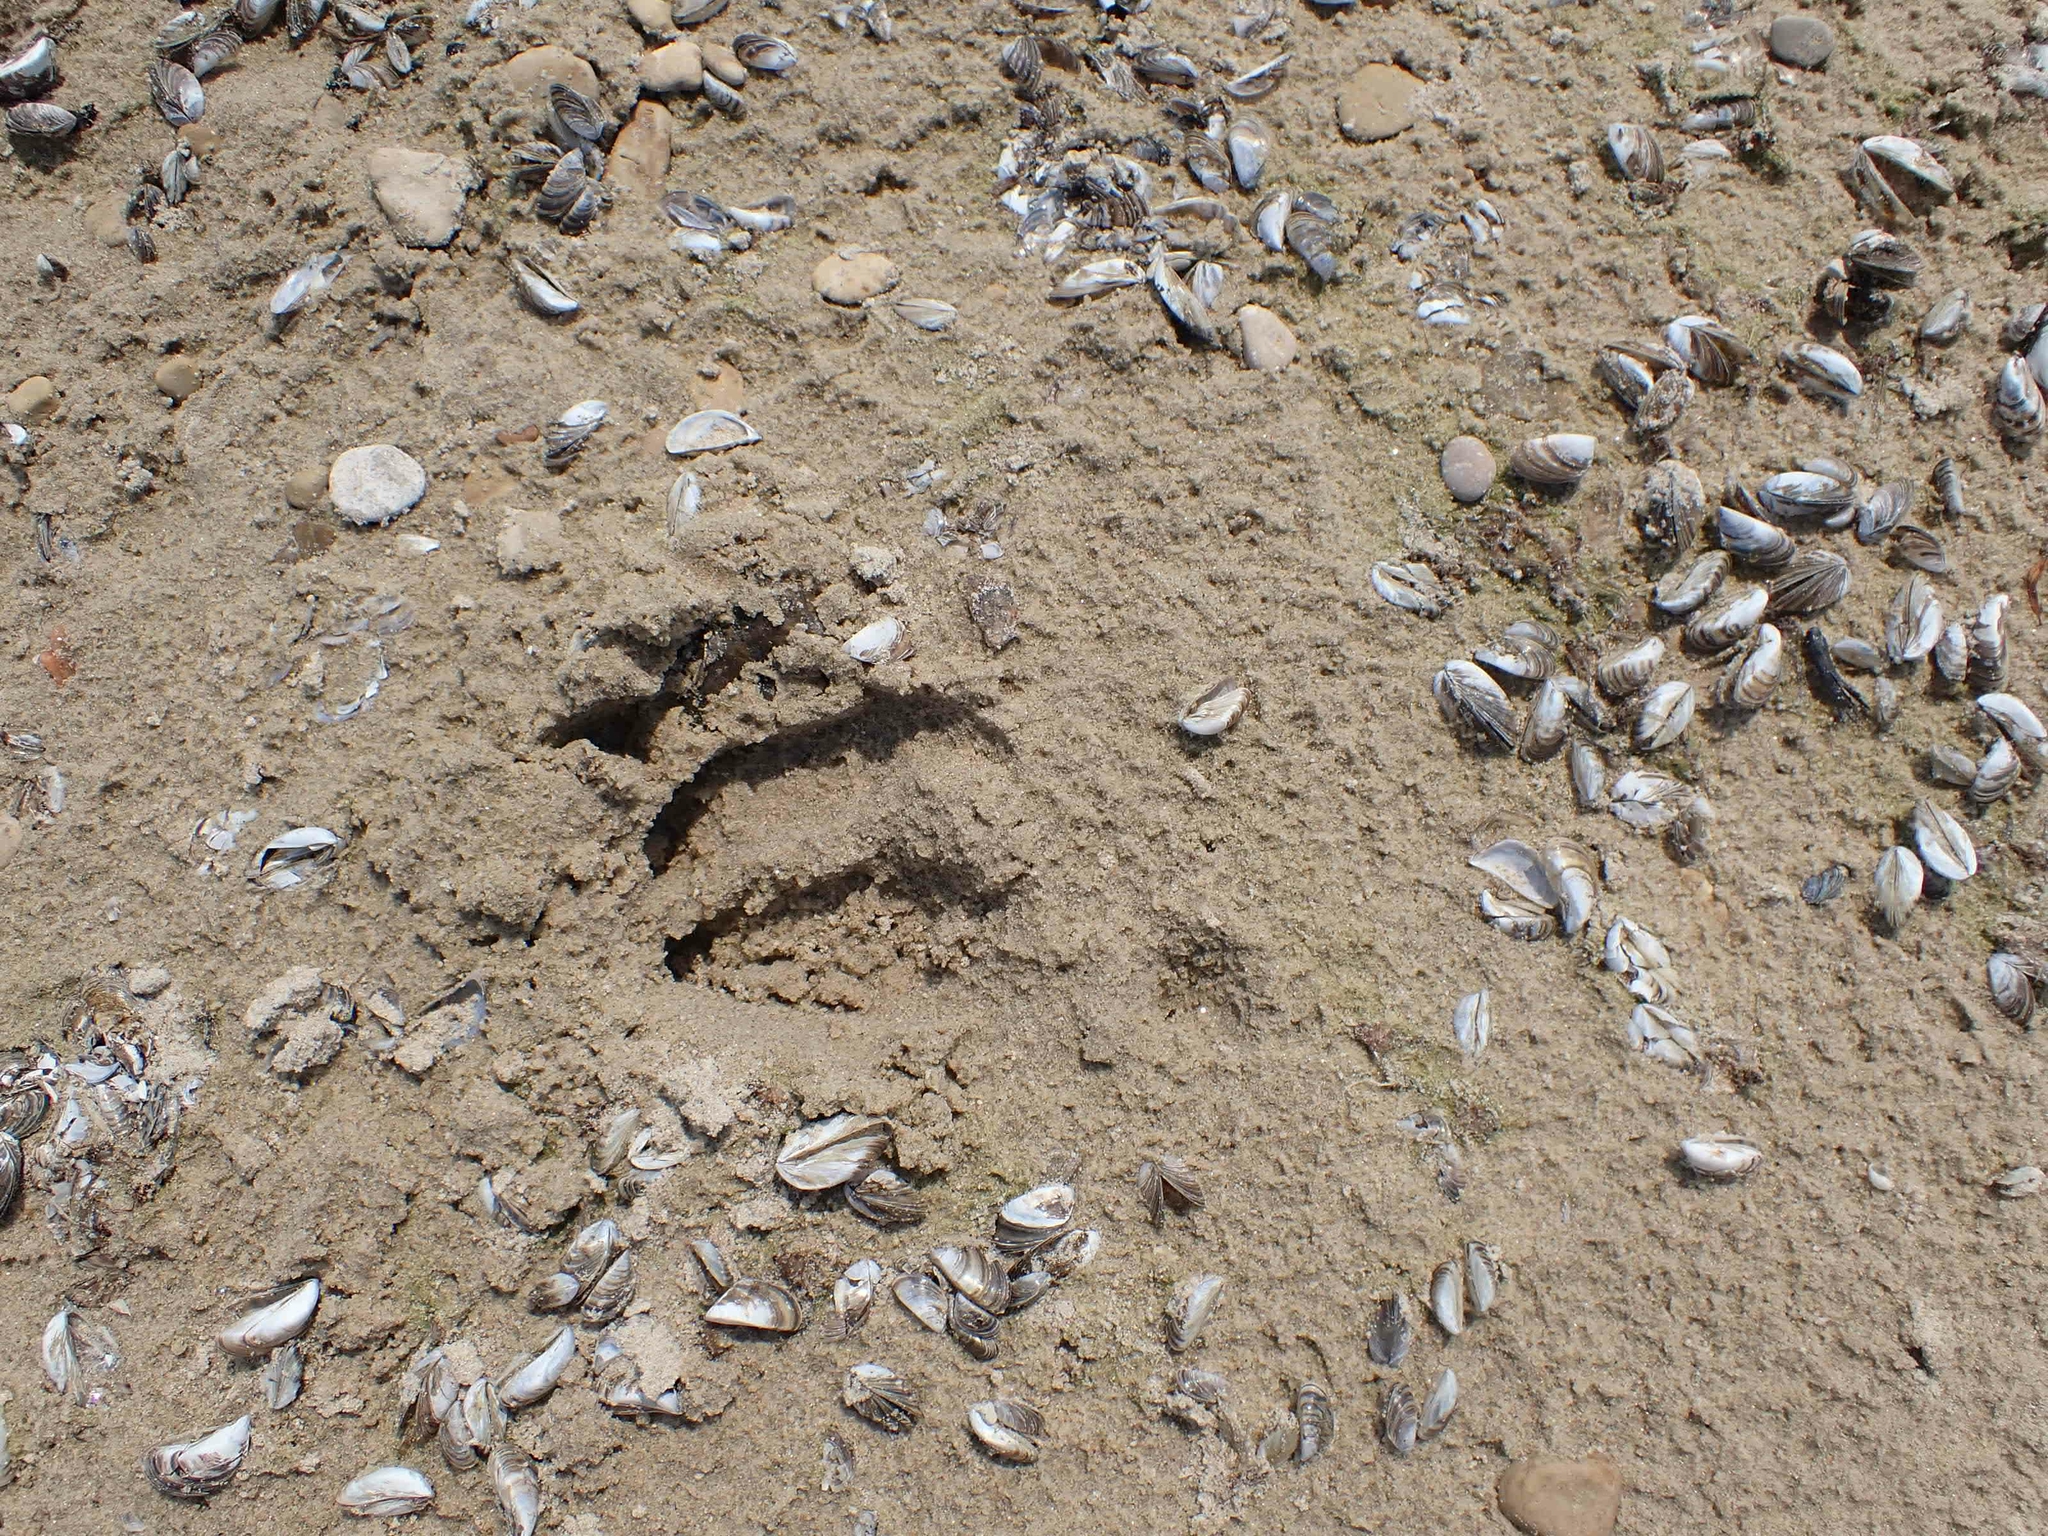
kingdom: Animalia
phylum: Chordata
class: Mammalia
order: Artiodactyla
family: Cervidae
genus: Odocoileus
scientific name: Odocoileus virginianus
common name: White-tailed deer
